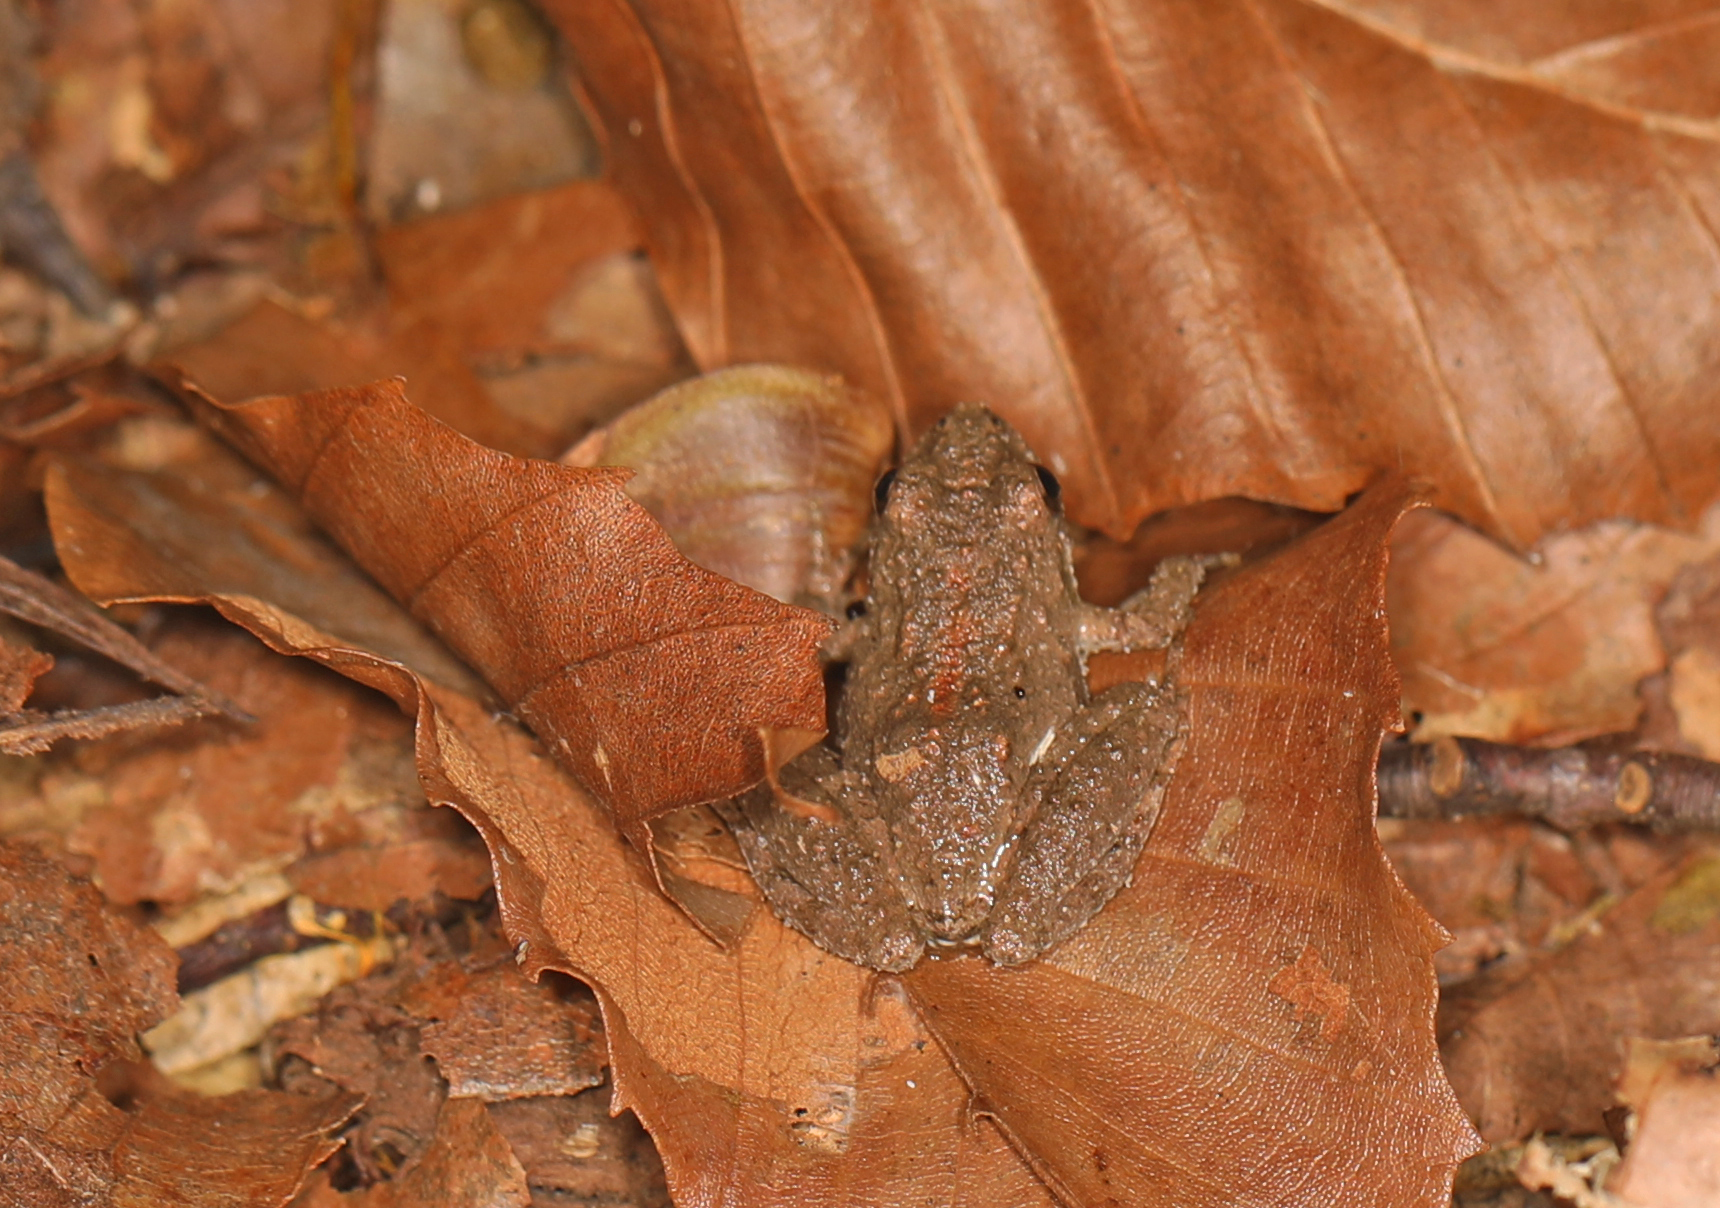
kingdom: Animalia
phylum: Chordata
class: Amphibia
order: Anura
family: Hylidae
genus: Acris
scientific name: Acris crepitans
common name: Northern cricket frog
